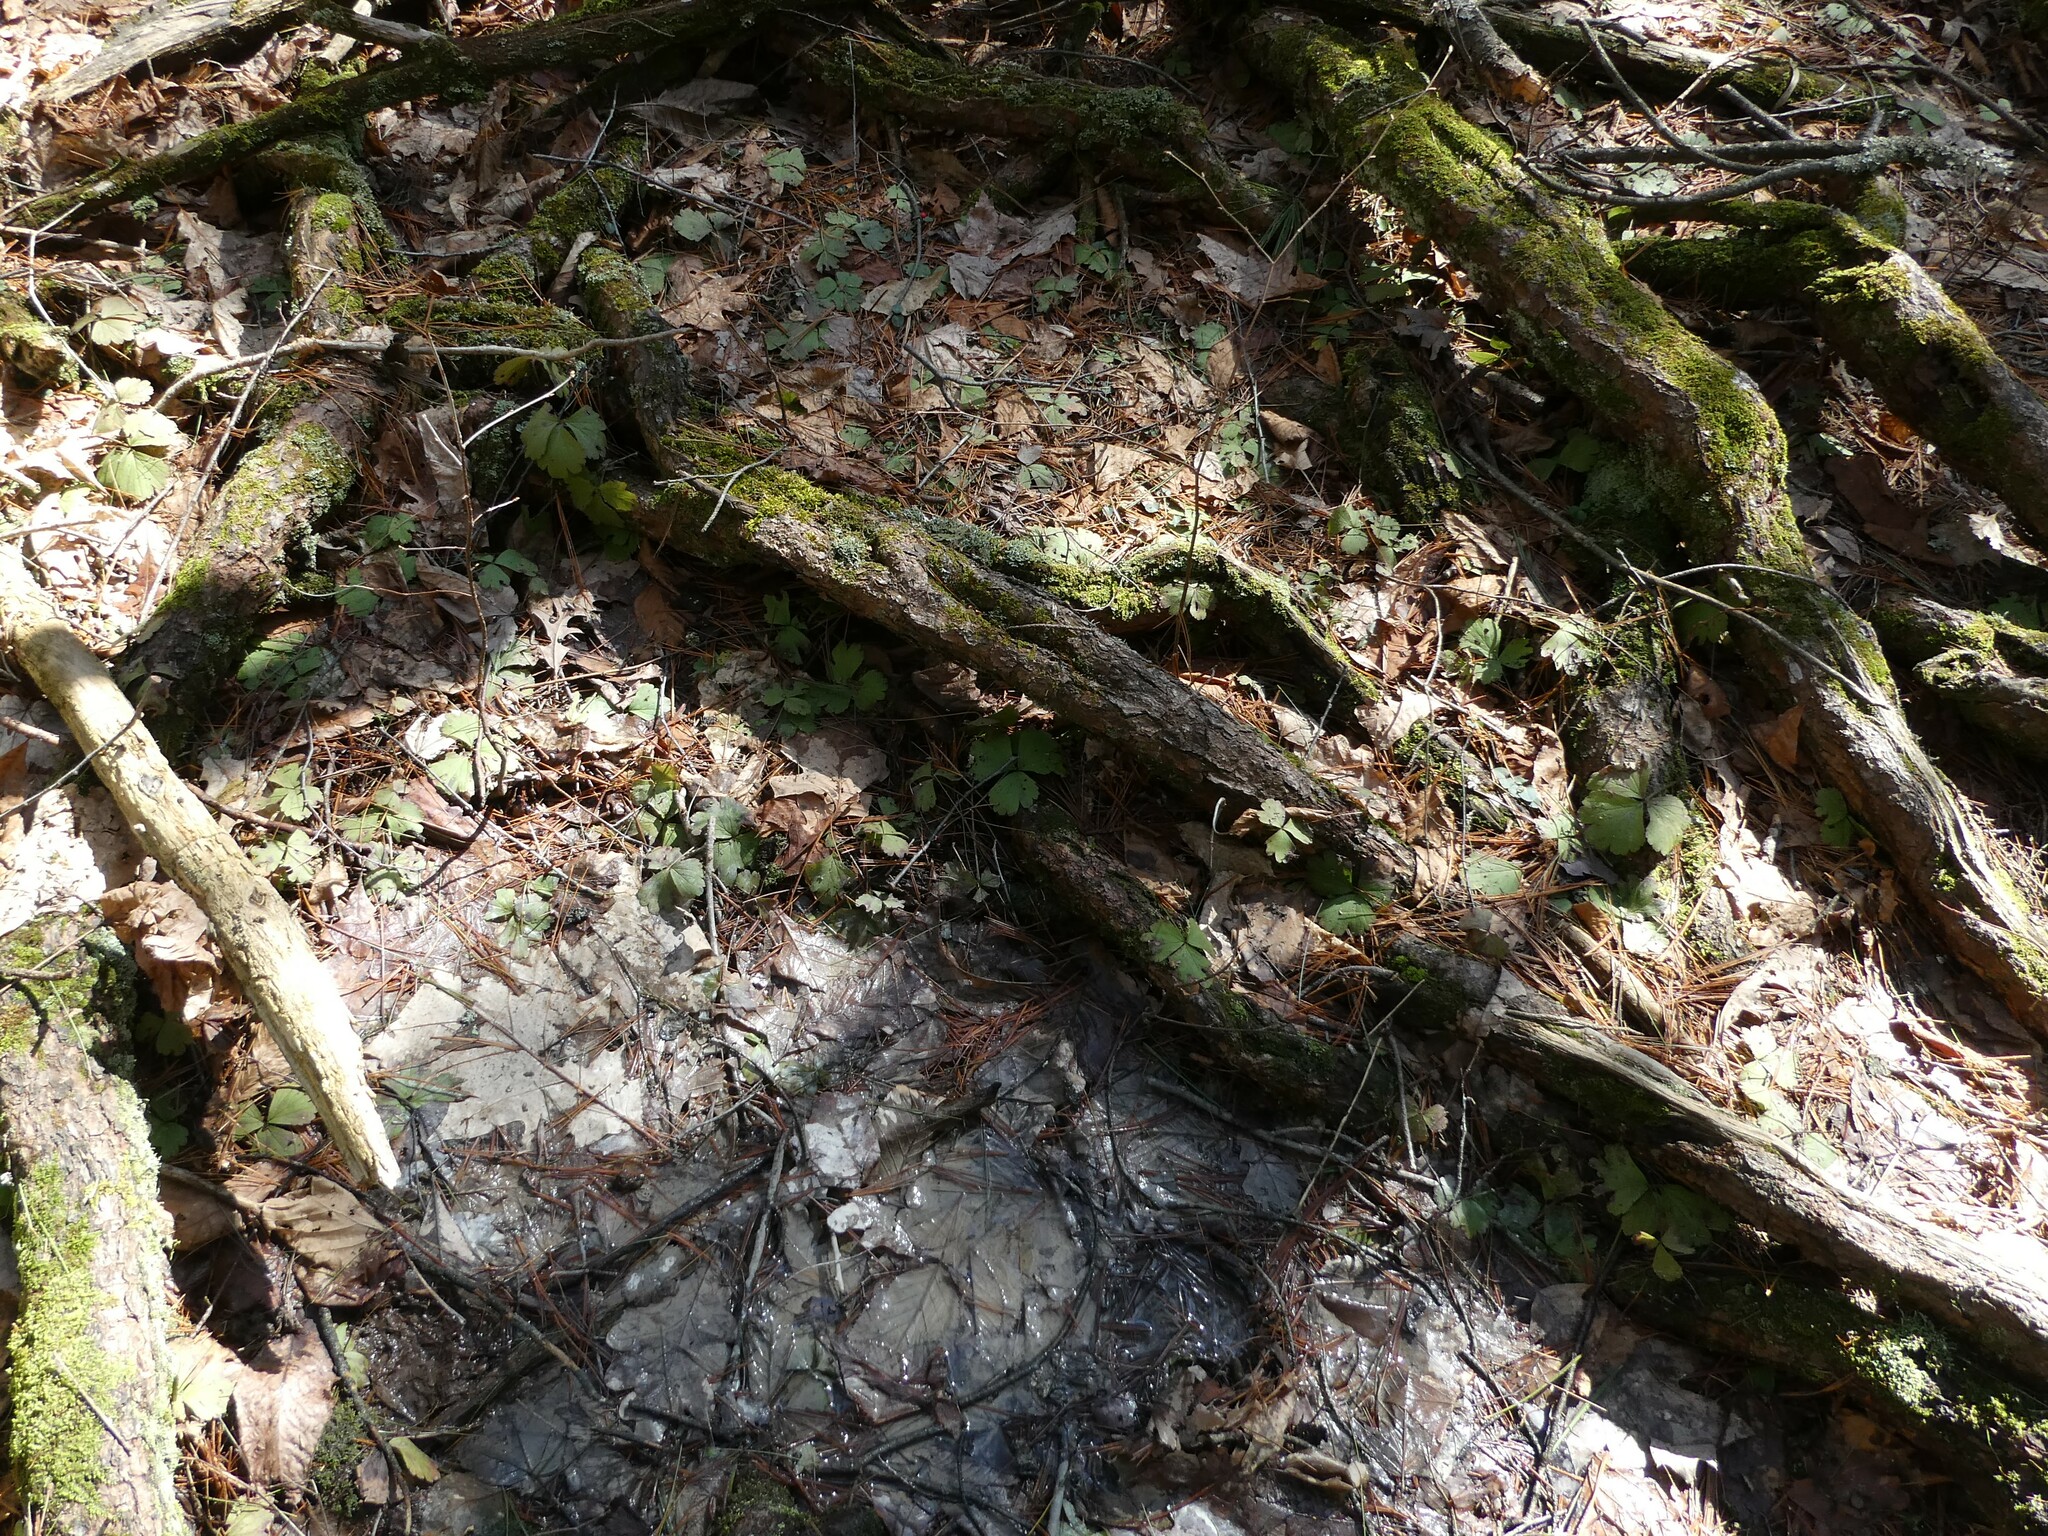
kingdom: Plantae
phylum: Tracheophyta
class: Magnoliopsida
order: Rosales
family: Rosaceae
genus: Geum
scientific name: Geum fragarioides
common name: Appalachian barren strawberry
